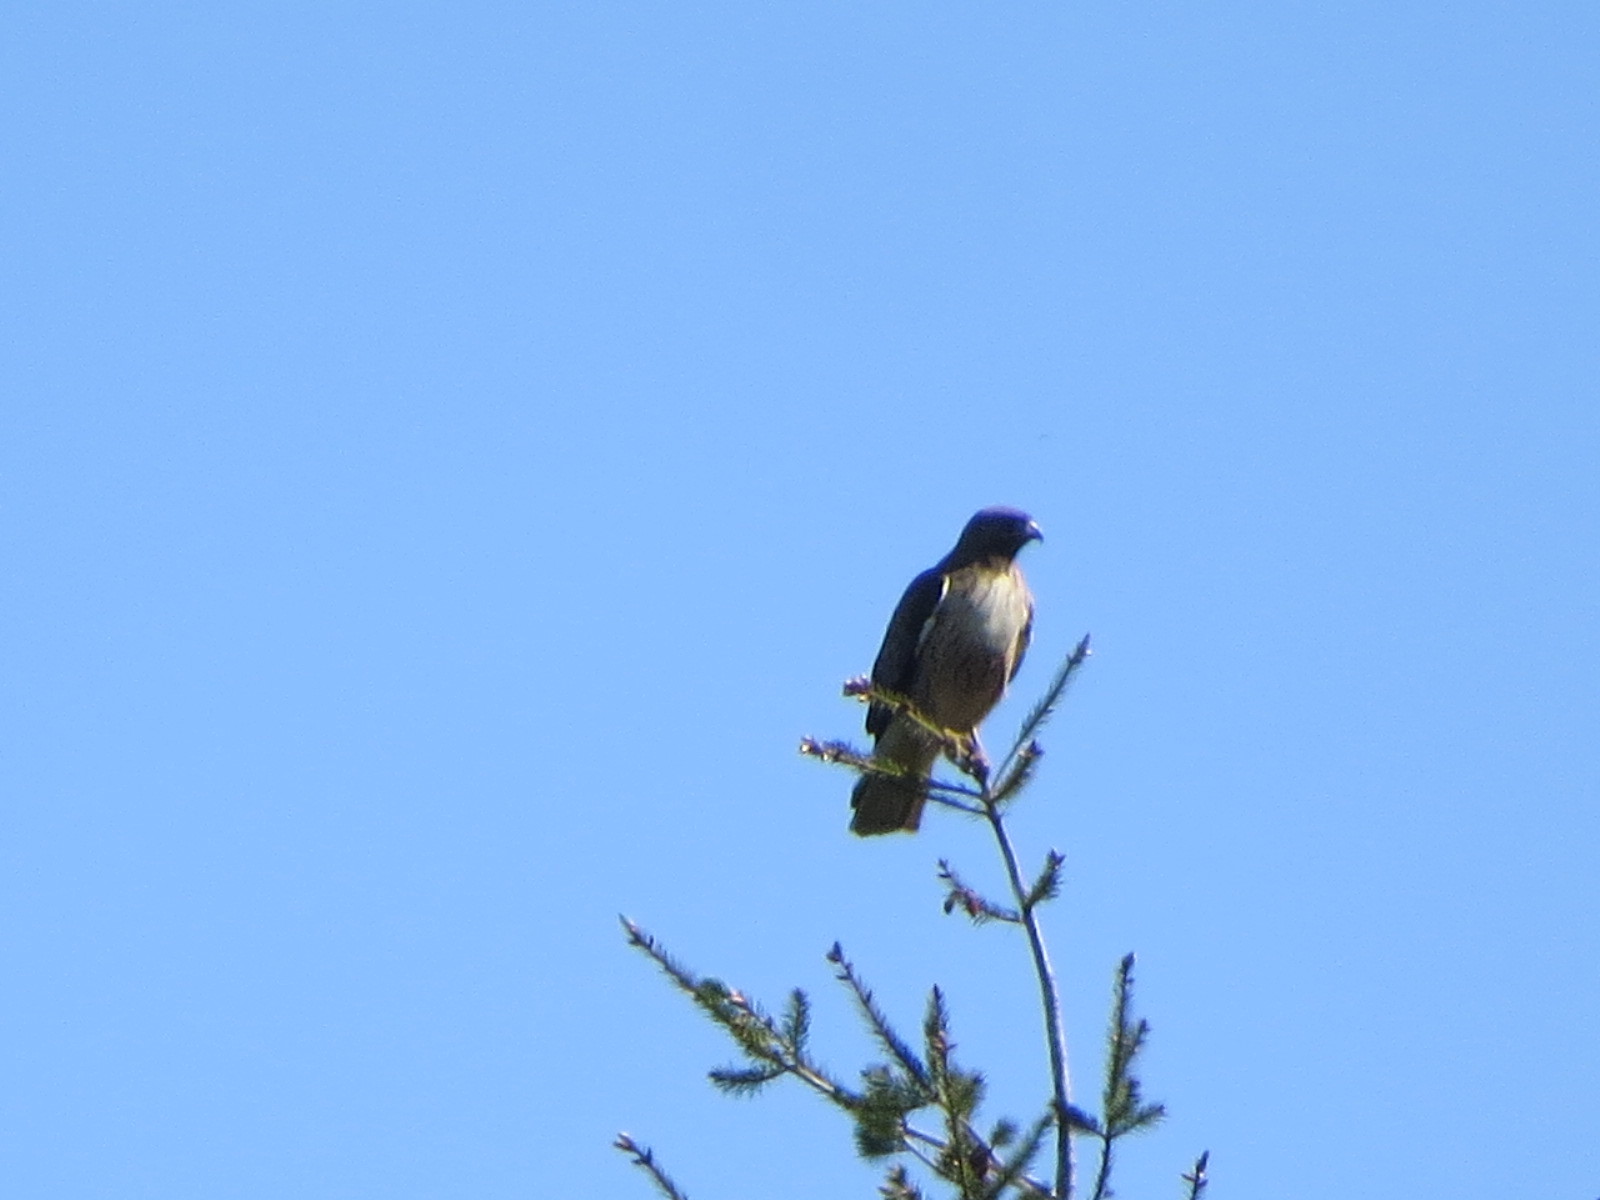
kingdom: Animalia
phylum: Chordata
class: Aves
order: Accipitriformes
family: Accipitridae
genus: Buteo
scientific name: Buteo jamaicensis
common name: Red-tailed hawk
